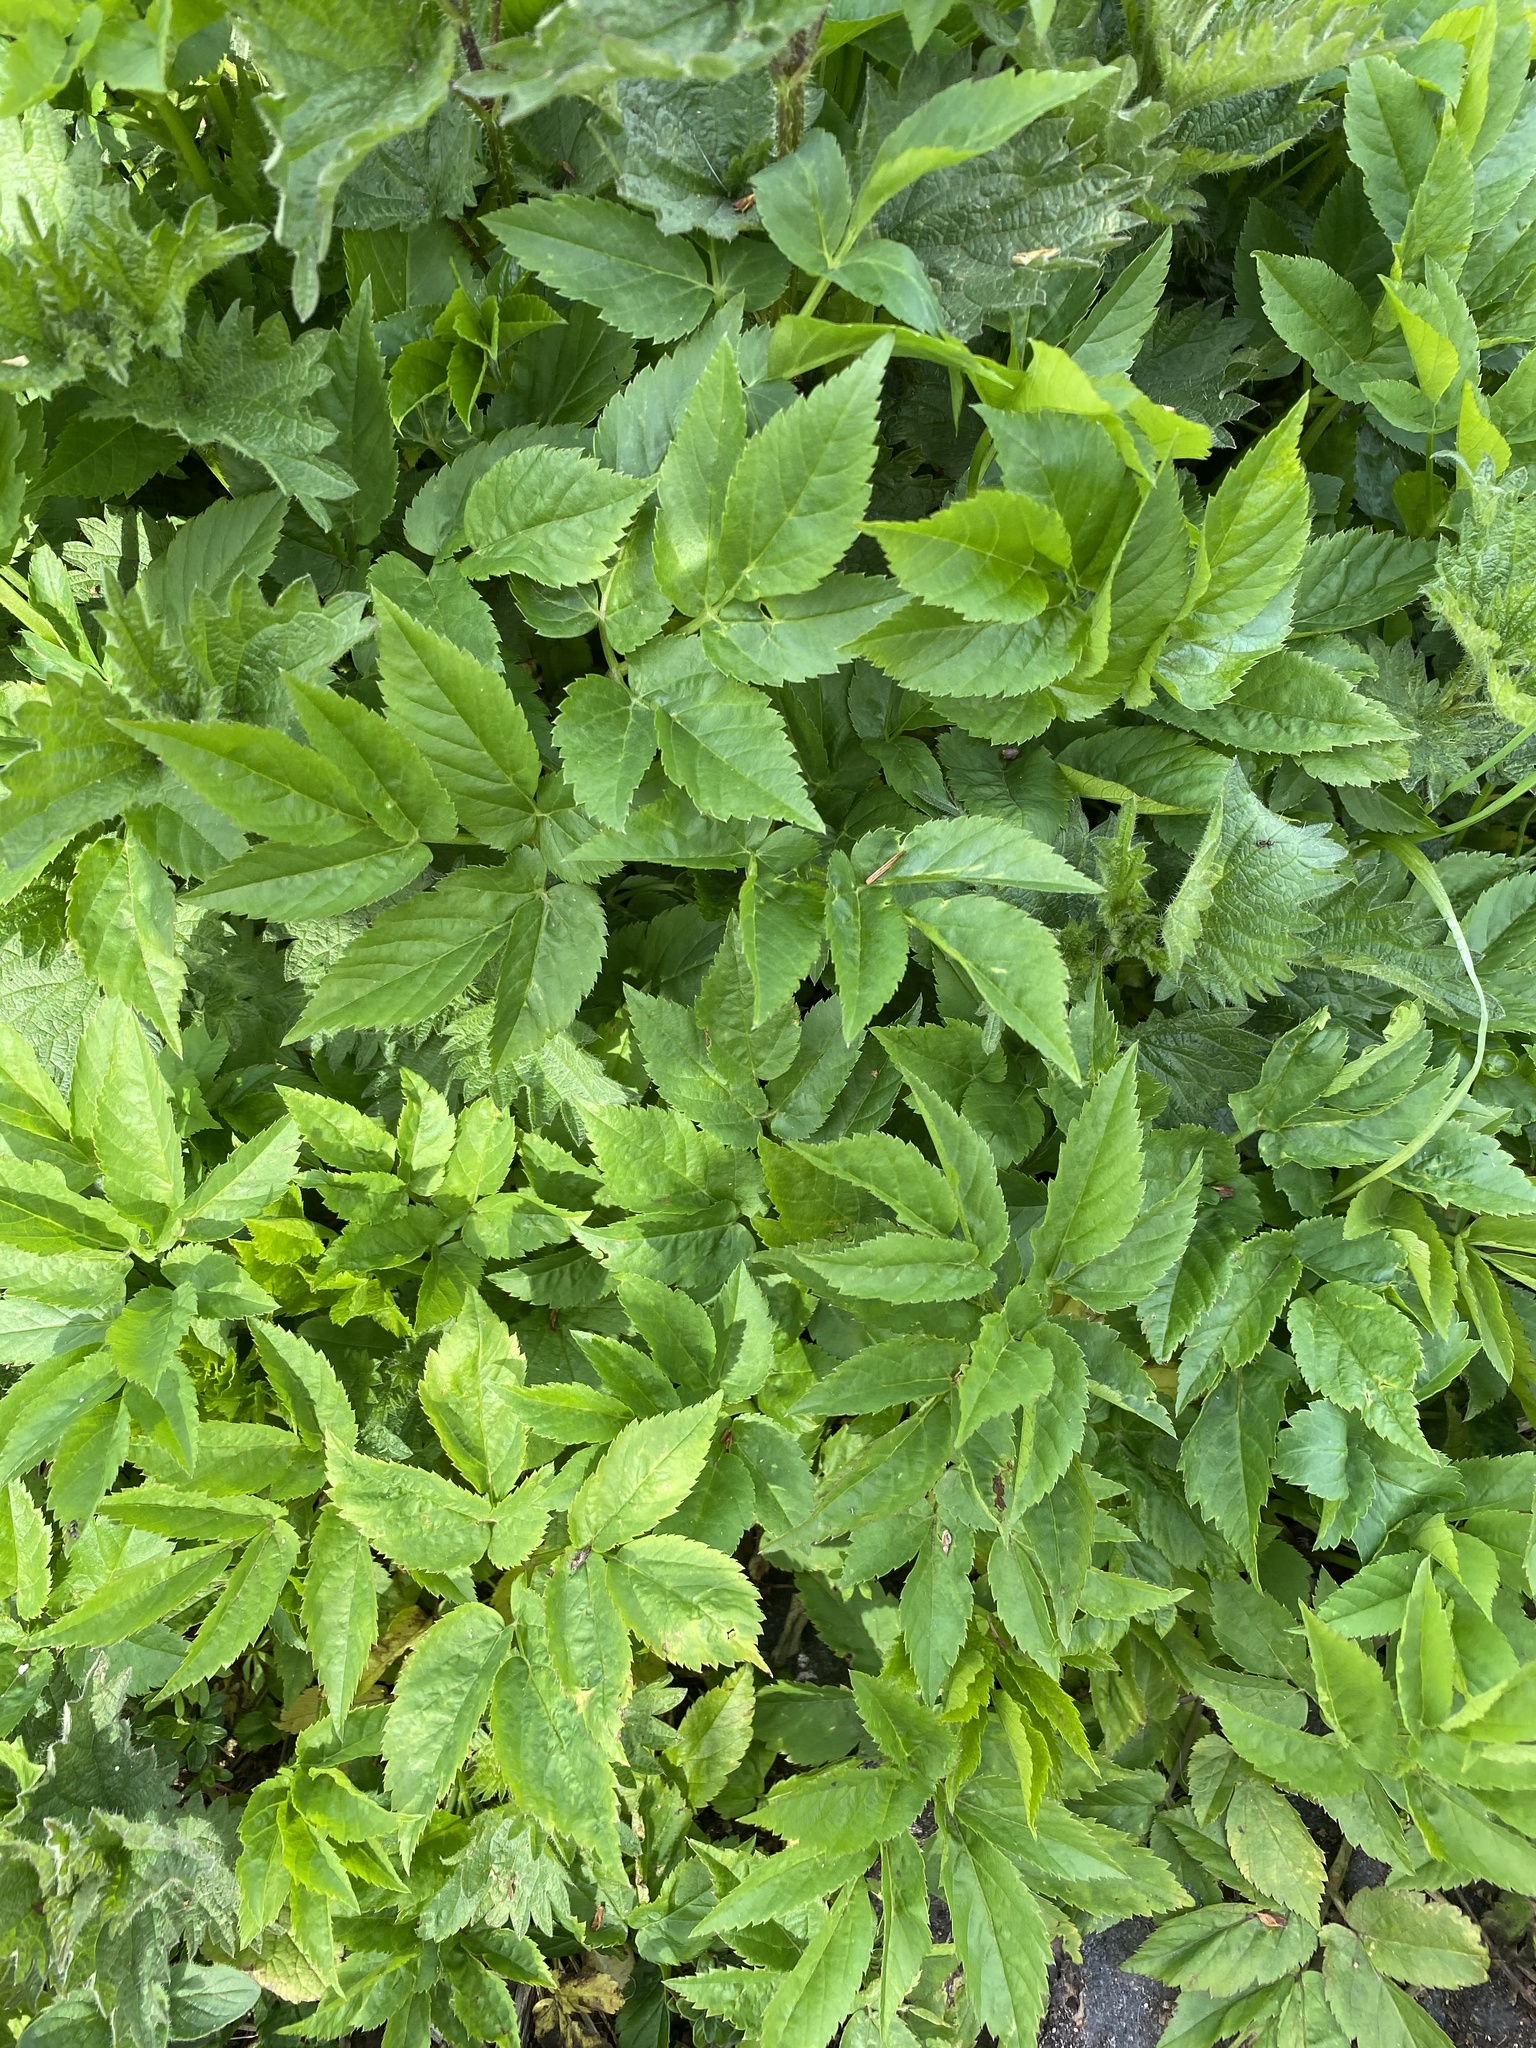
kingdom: Plantae
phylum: Tracheophyta
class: Magnoliopsida
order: Apiales
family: Apiaceae
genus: Aegopodium
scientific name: Aegopodium podagraria
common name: Ground-elder
